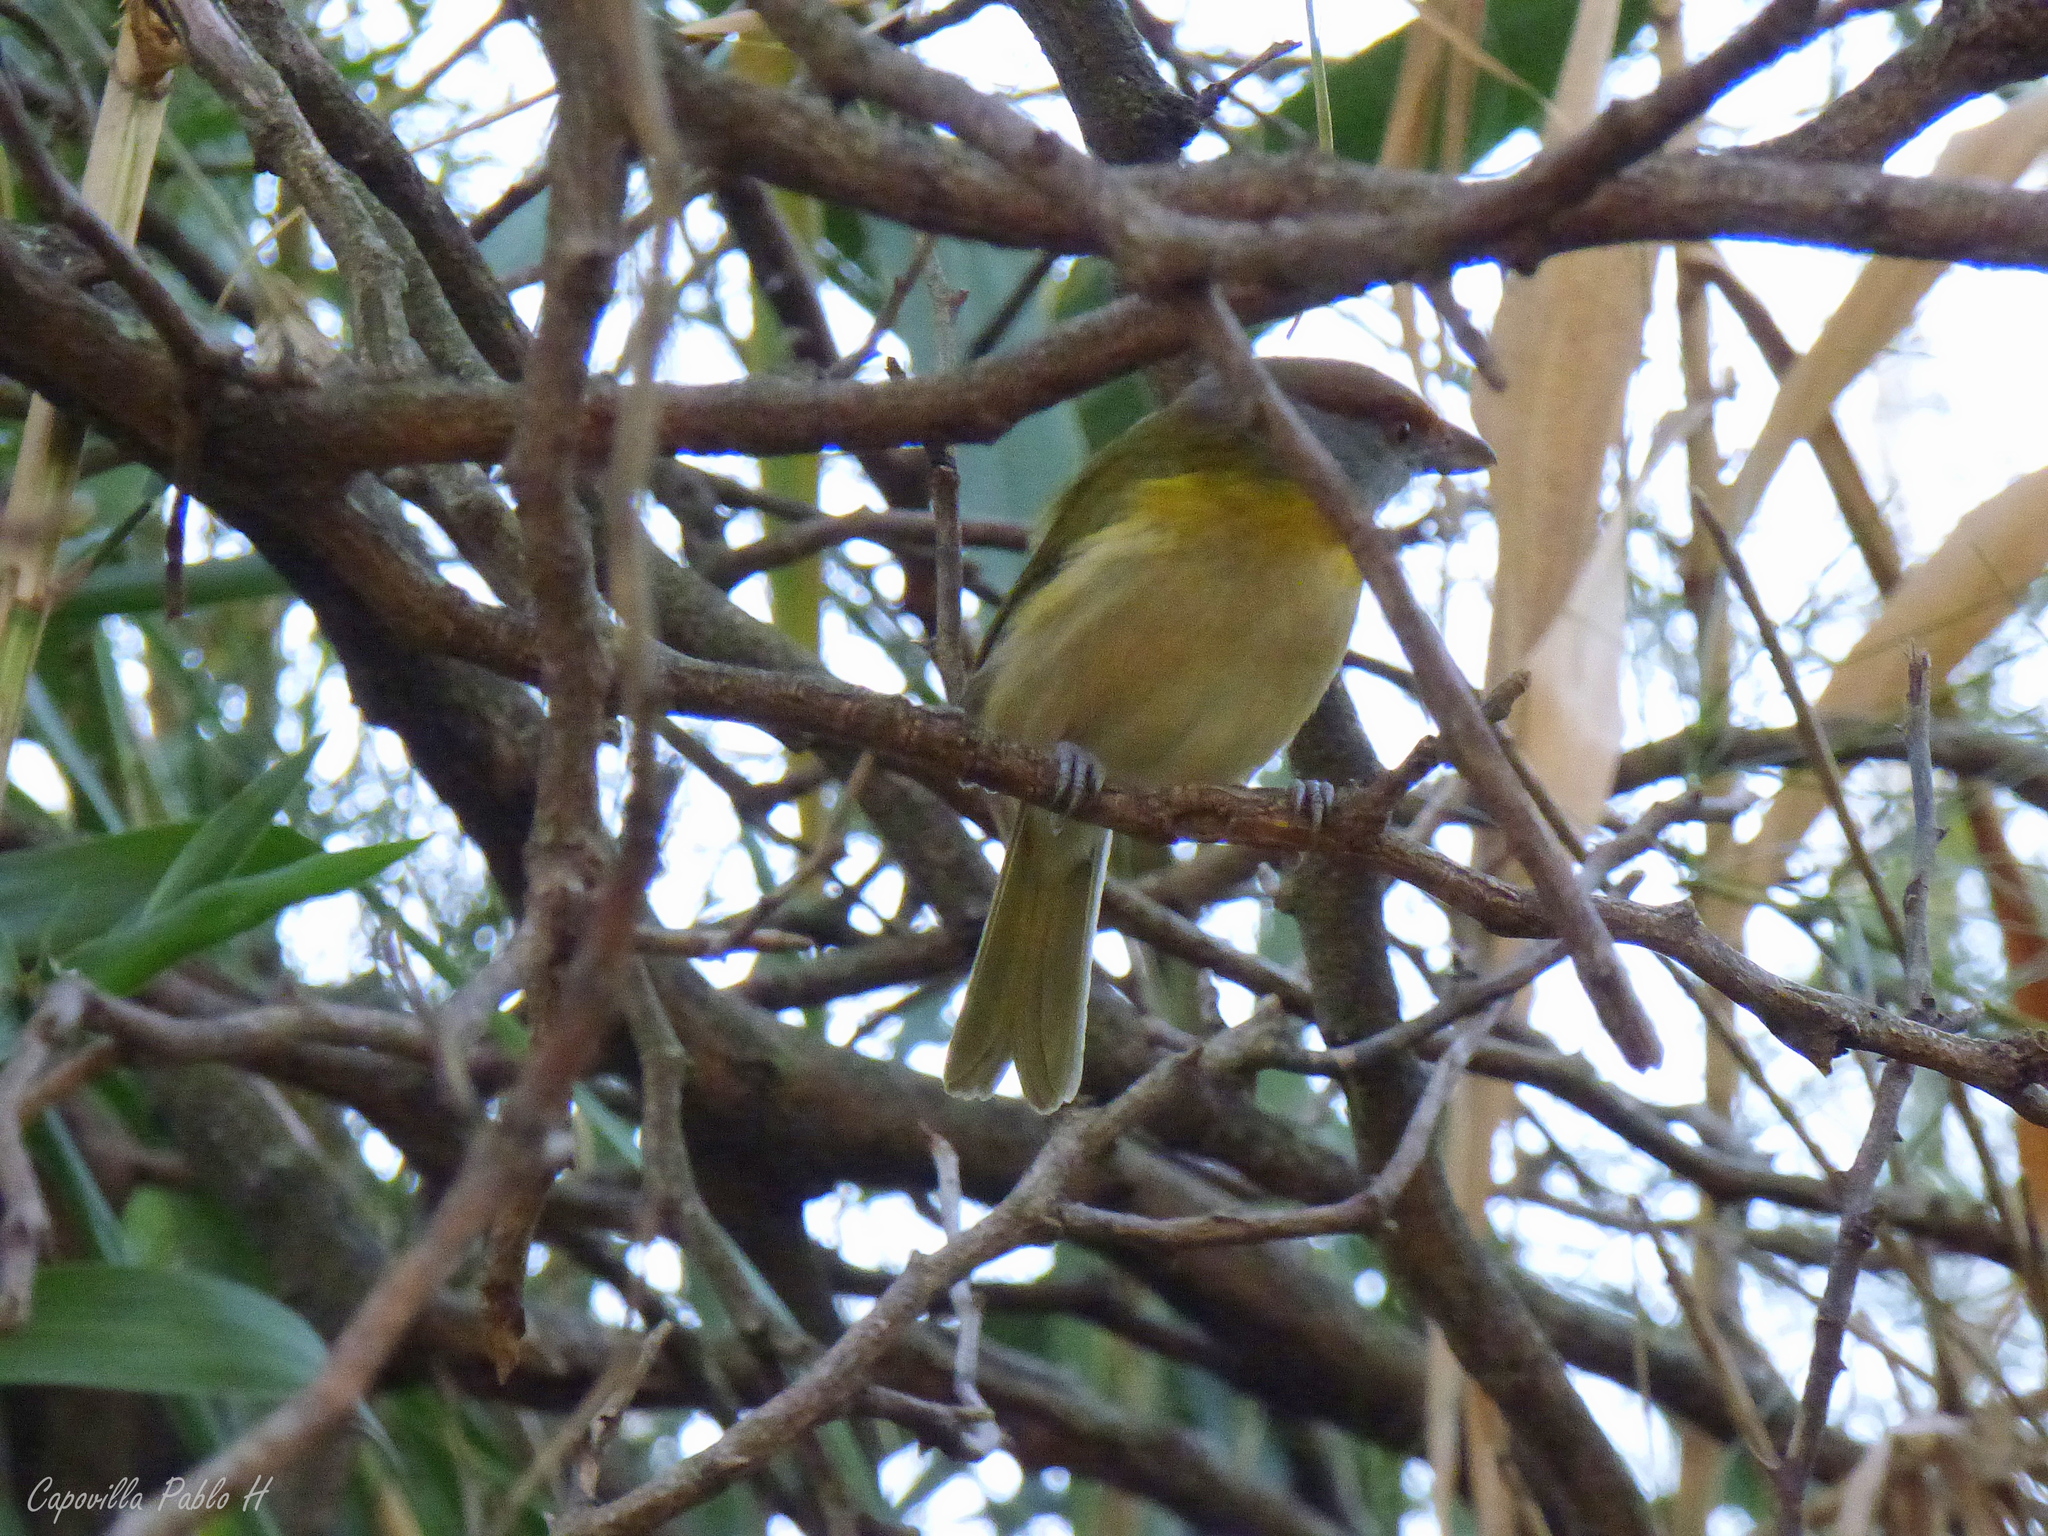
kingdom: Animalia
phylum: Chordata
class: Aves
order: Passeriformes
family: Vireonidae
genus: Cyclarhis
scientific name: Cyclarhis gujanensis
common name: Rufous-browed peppershrike
